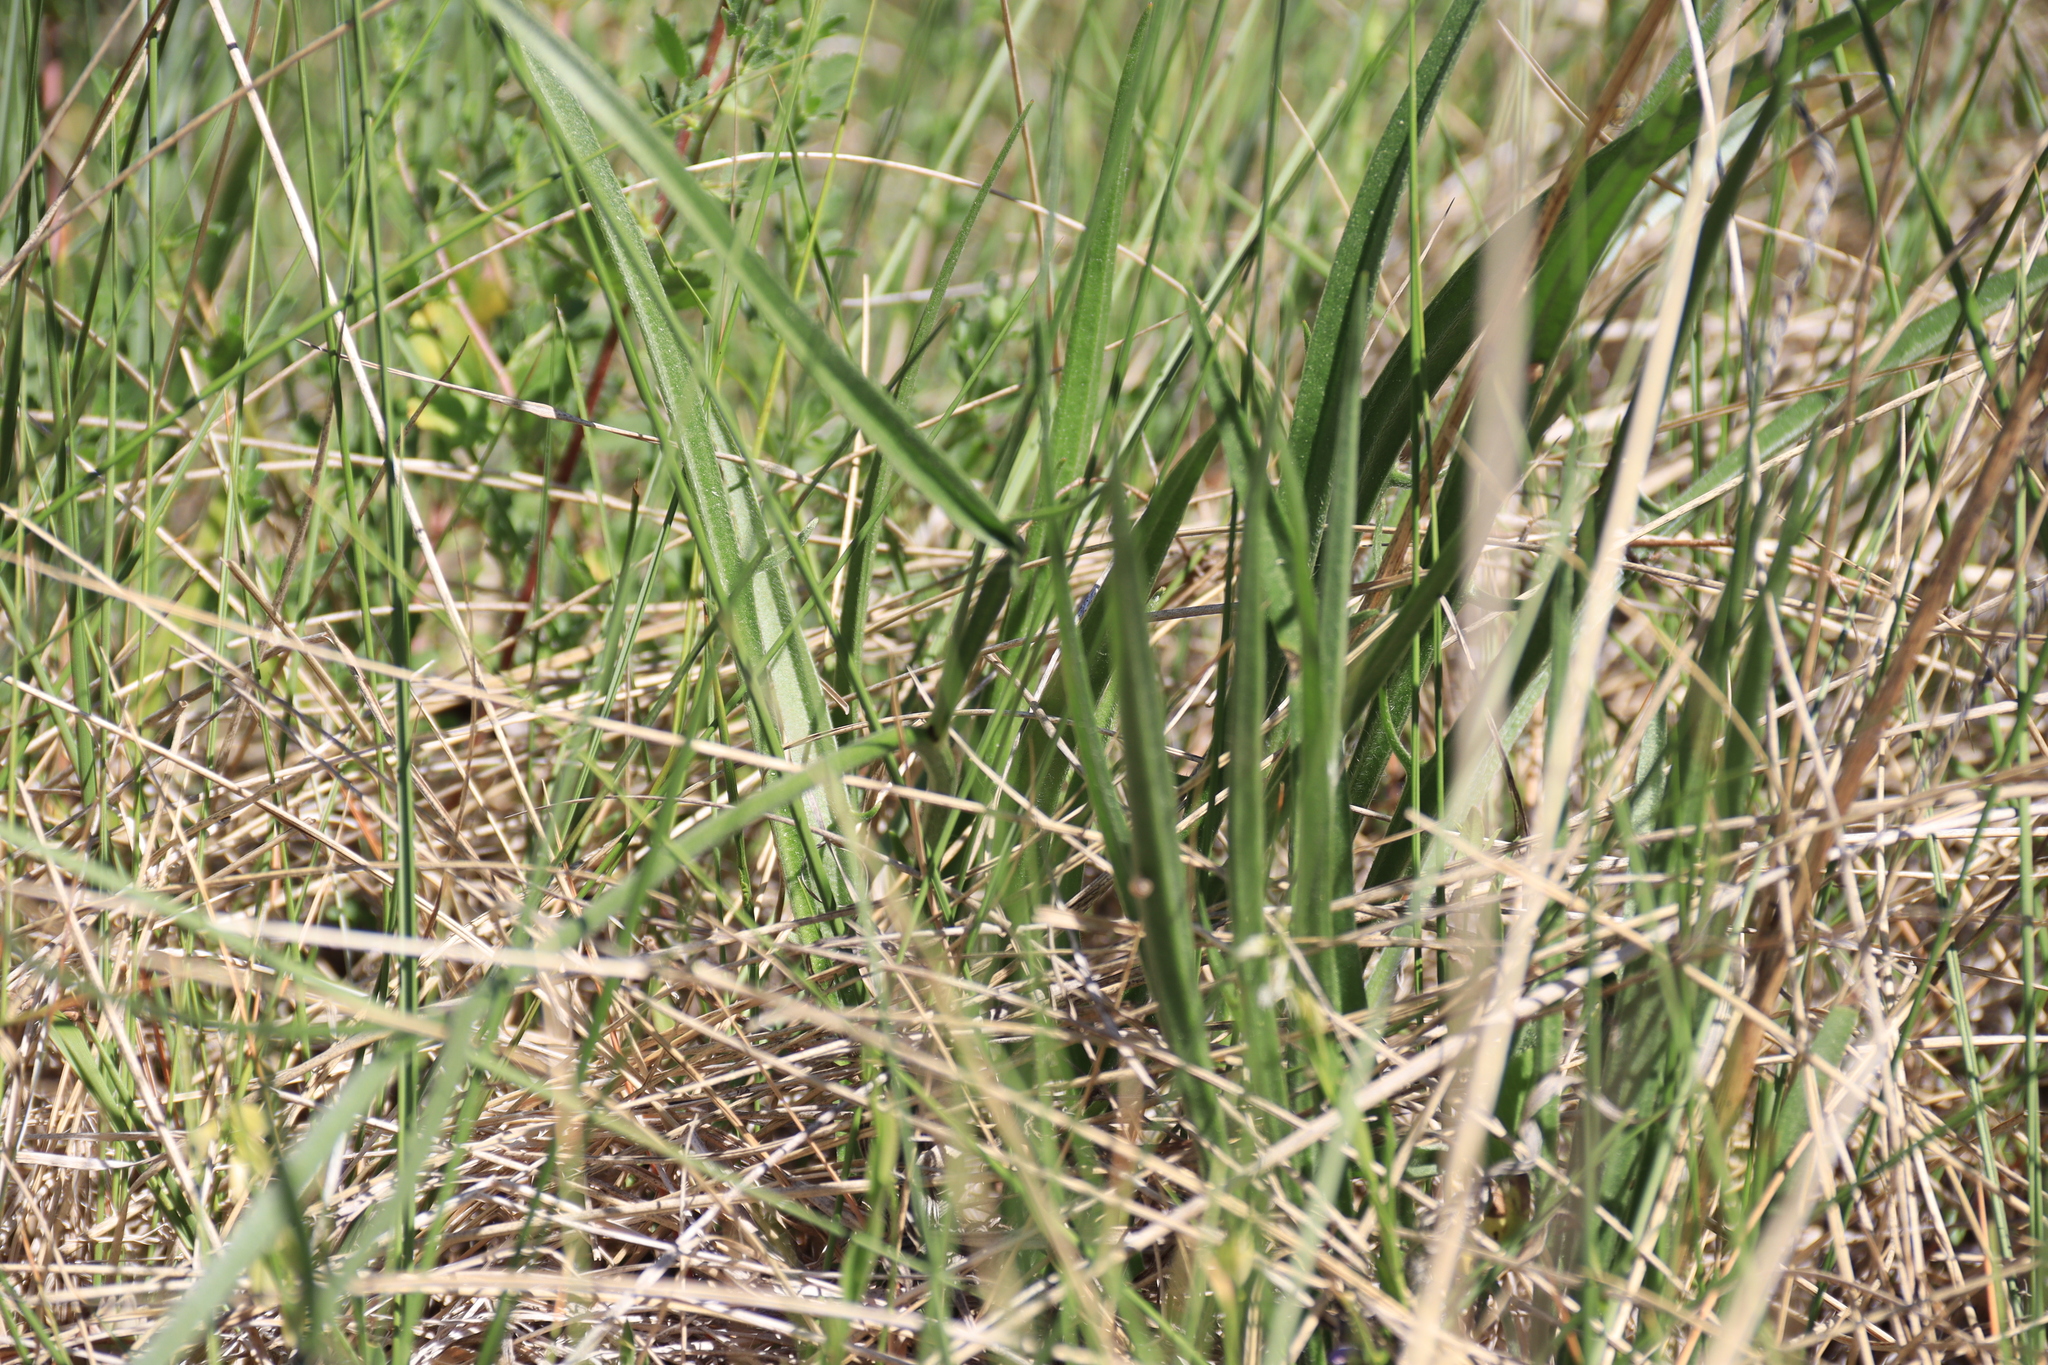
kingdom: Plantae
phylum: Tracheophyta
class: Magnoliopsida
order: Asterales
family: Asteraceae
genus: Catananche
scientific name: Catananche caerulea
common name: Blue cupidone
